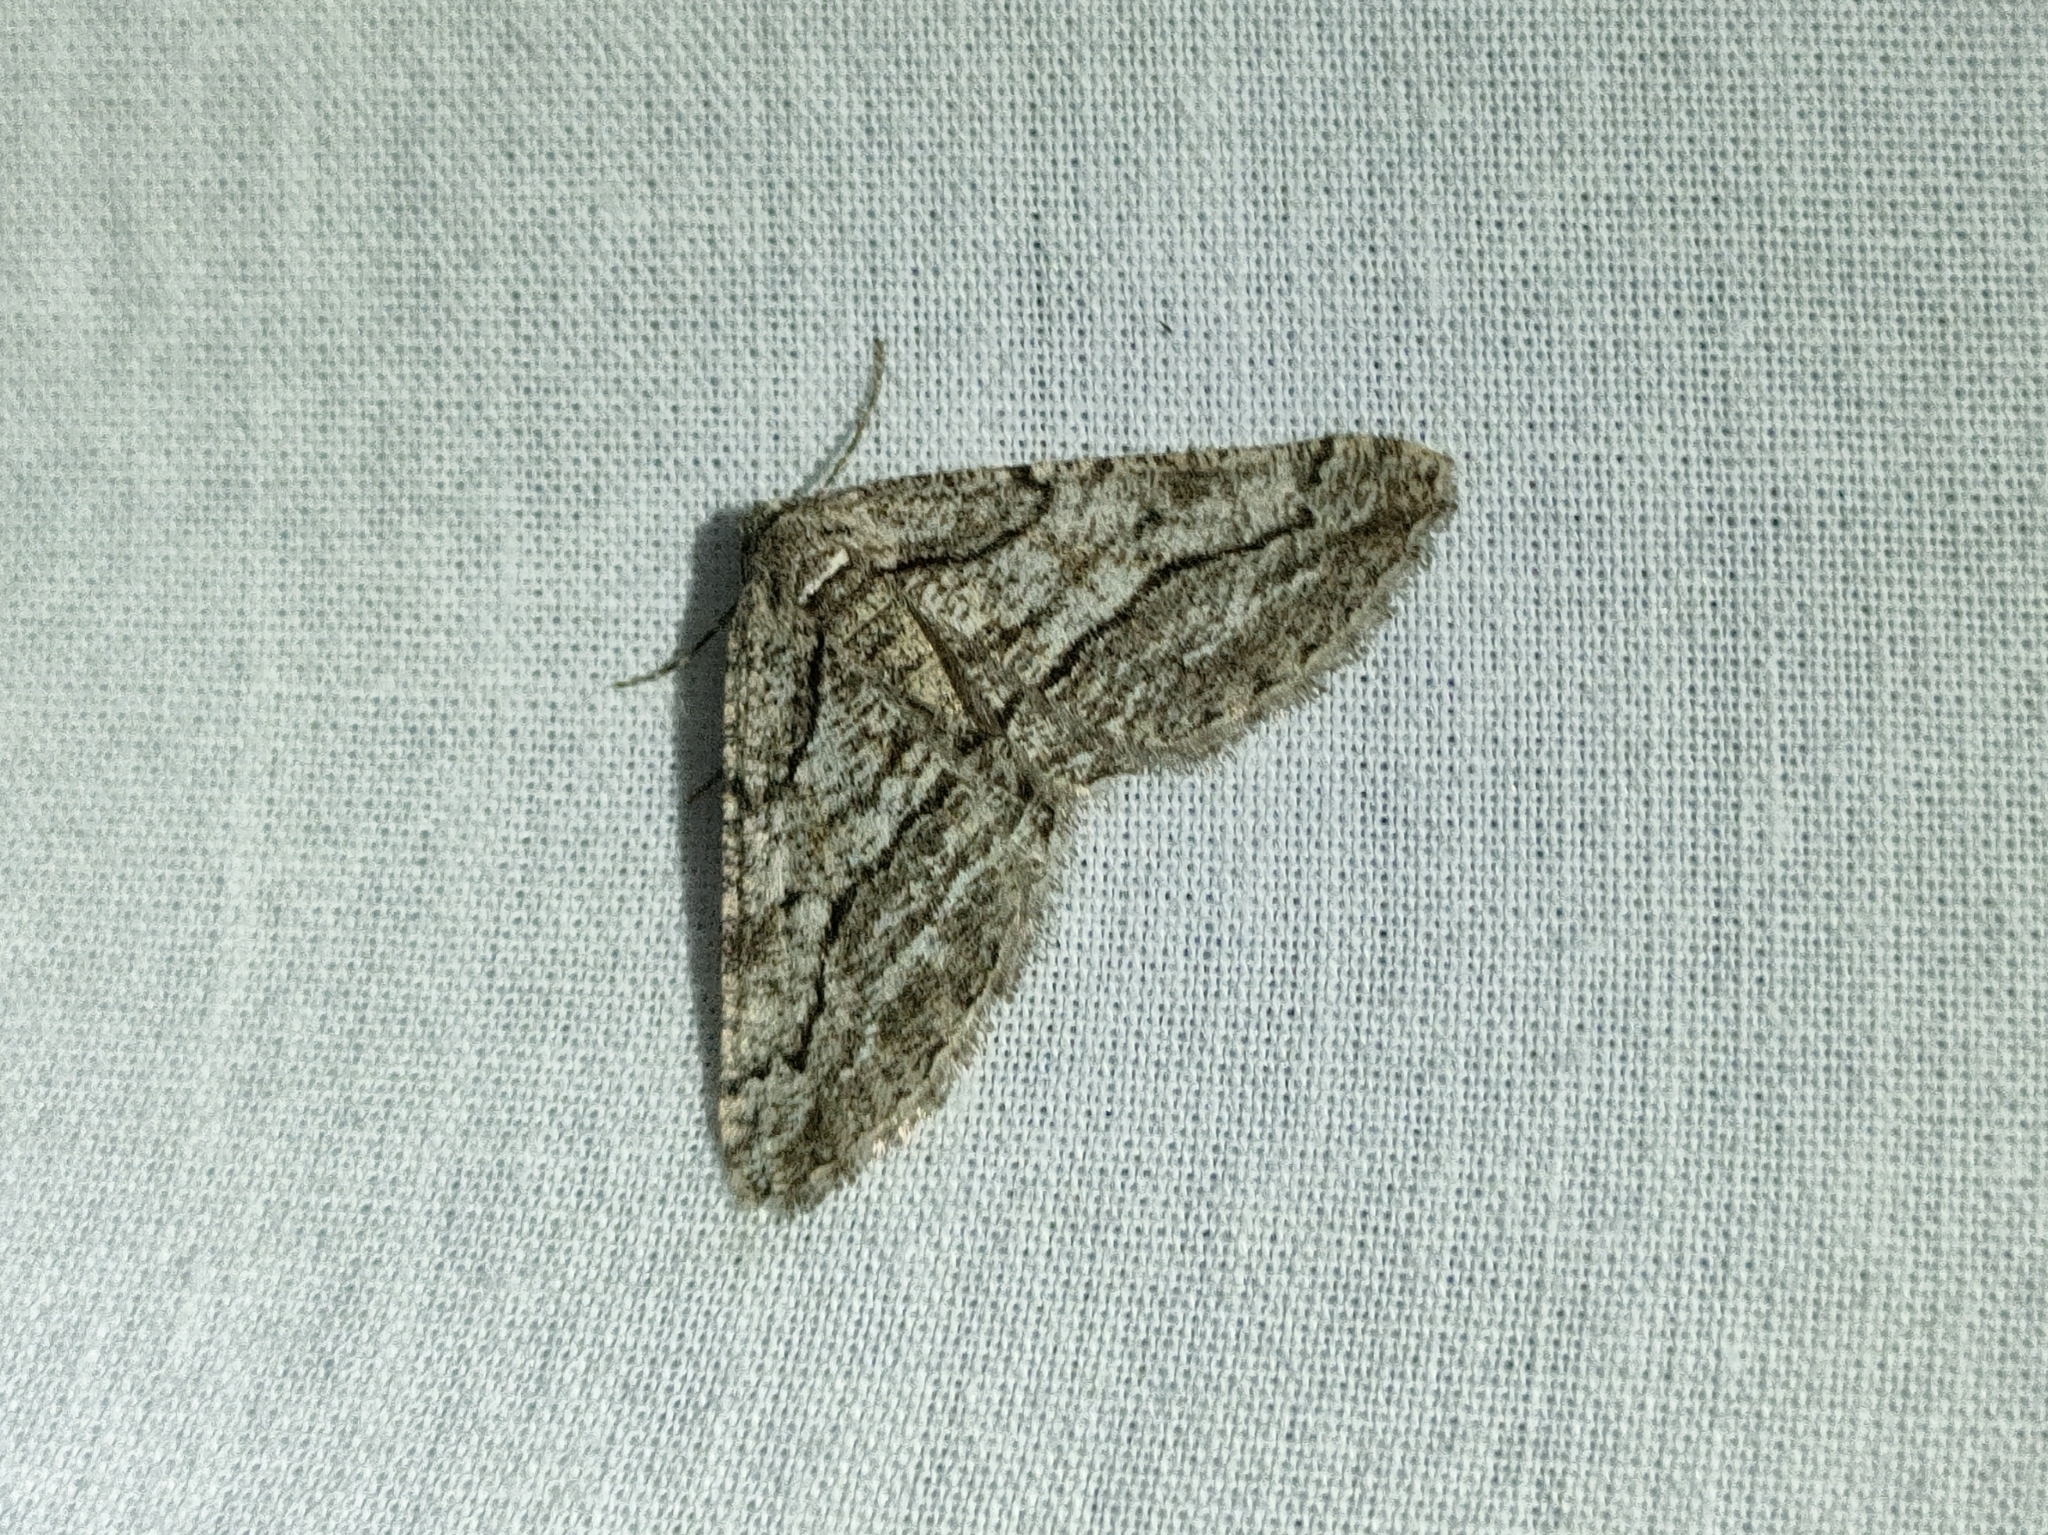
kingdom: Animalia
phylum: Arthropoda
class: Insecta
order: Lepidoptera
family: Geometridae
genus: Calamodes
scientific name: Calamodes occitanaria
